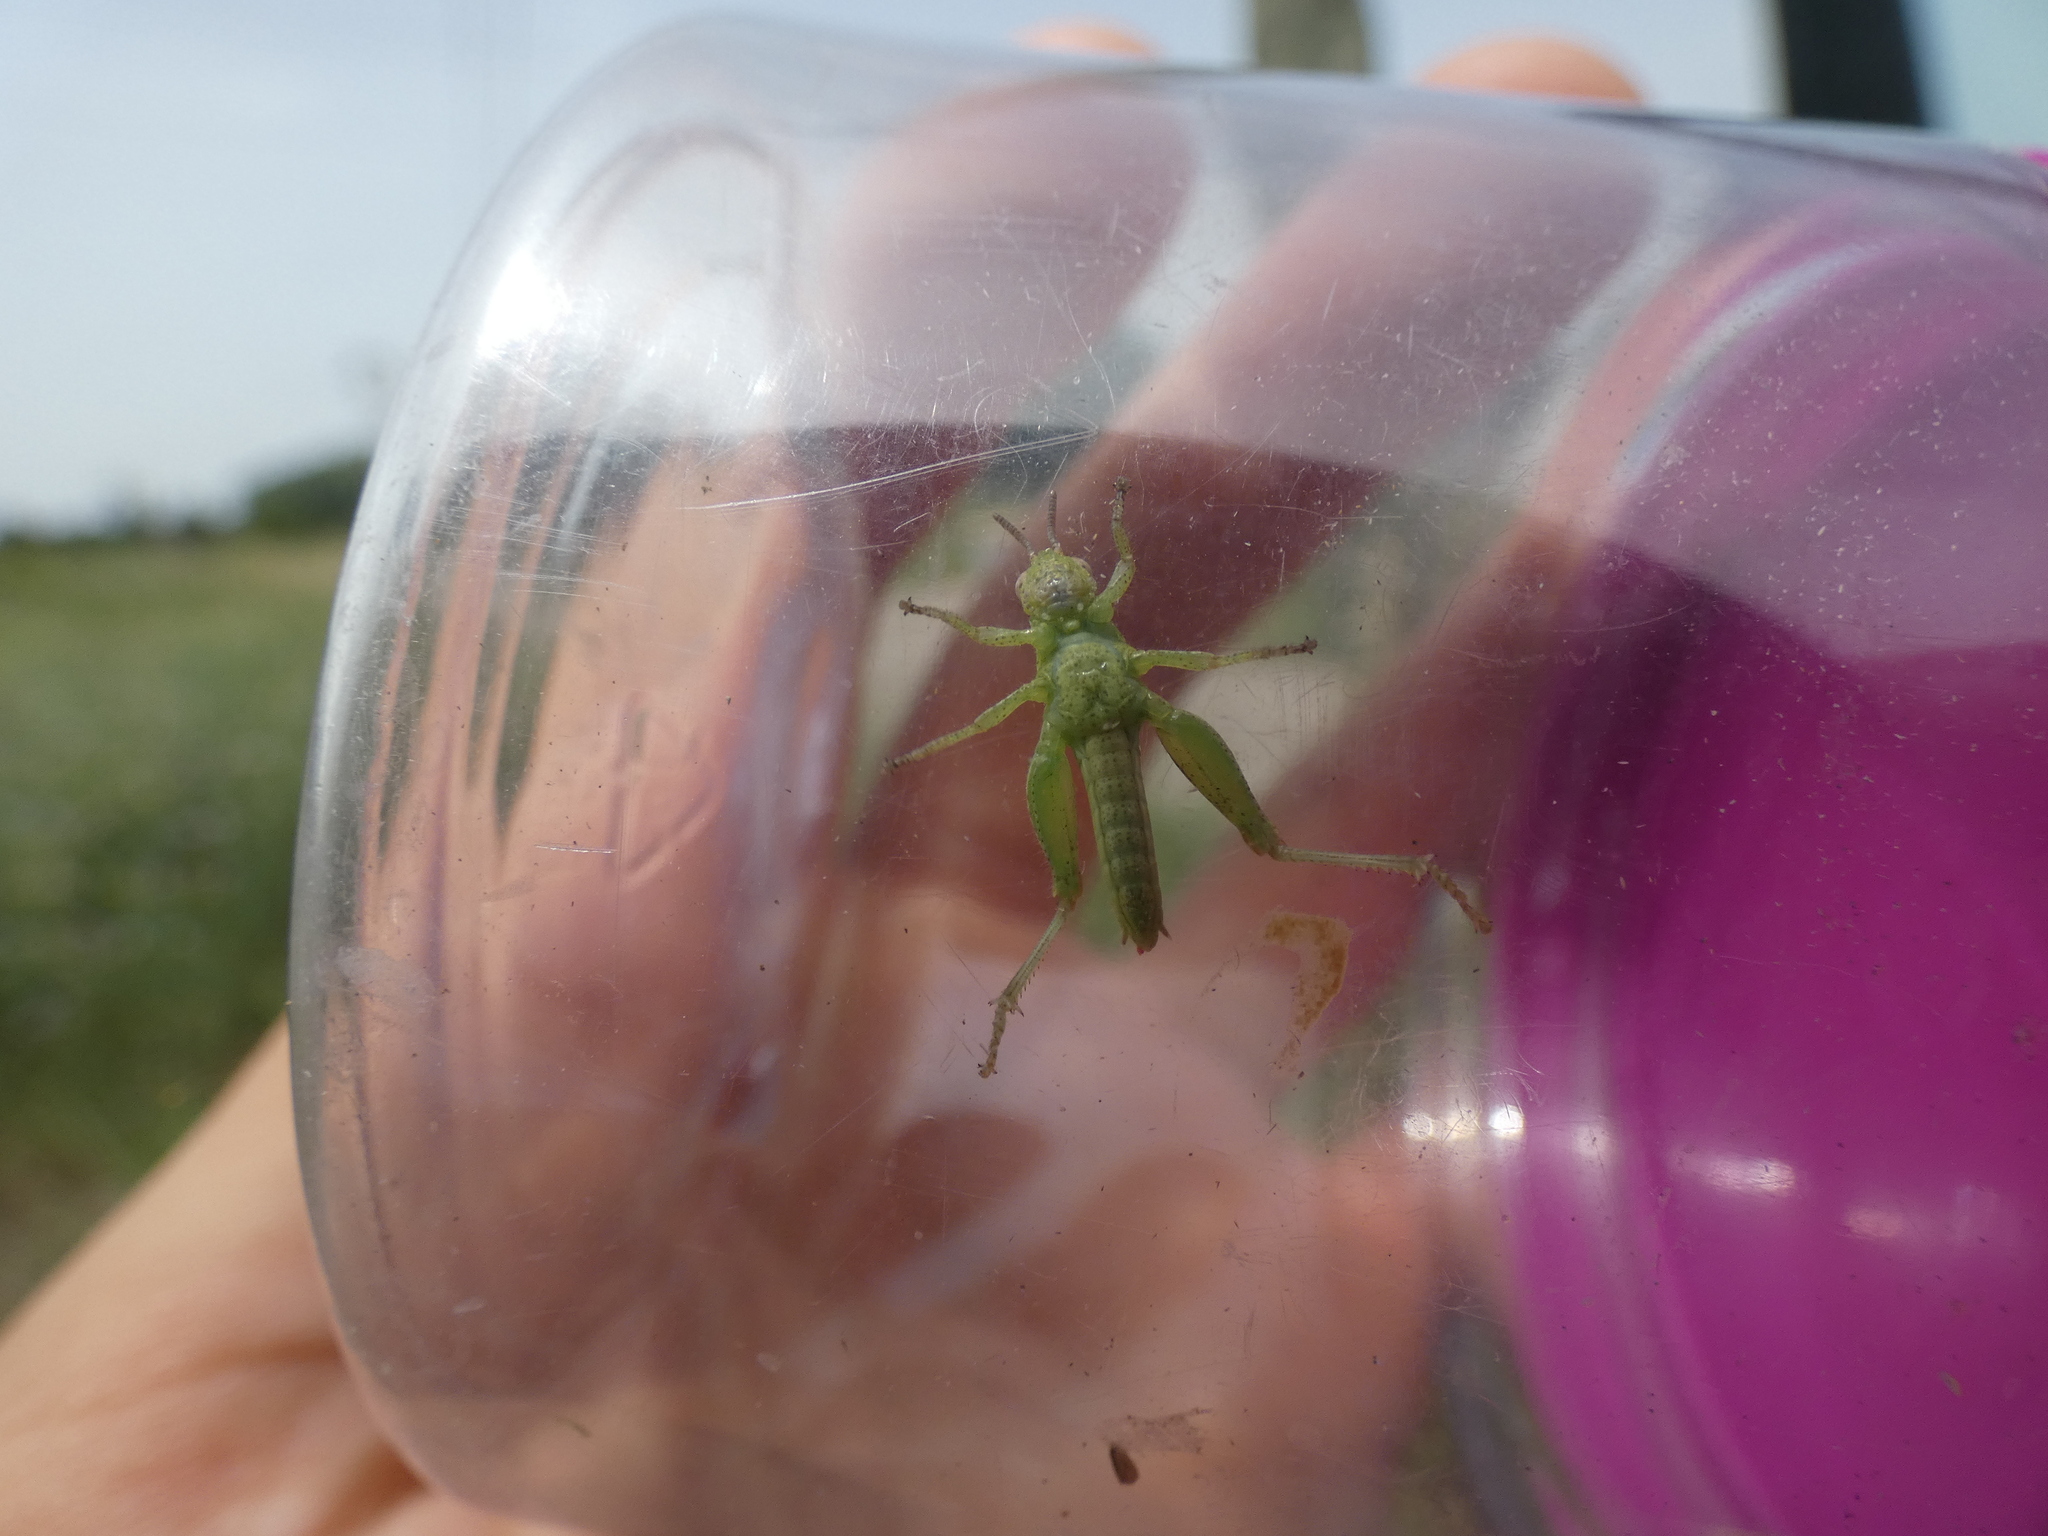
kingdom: Animalia
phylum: Arthropoda
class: Insecta
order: Orthoptera
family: Acrididae
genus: Pezotettix
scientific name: Pezotettix giornae
